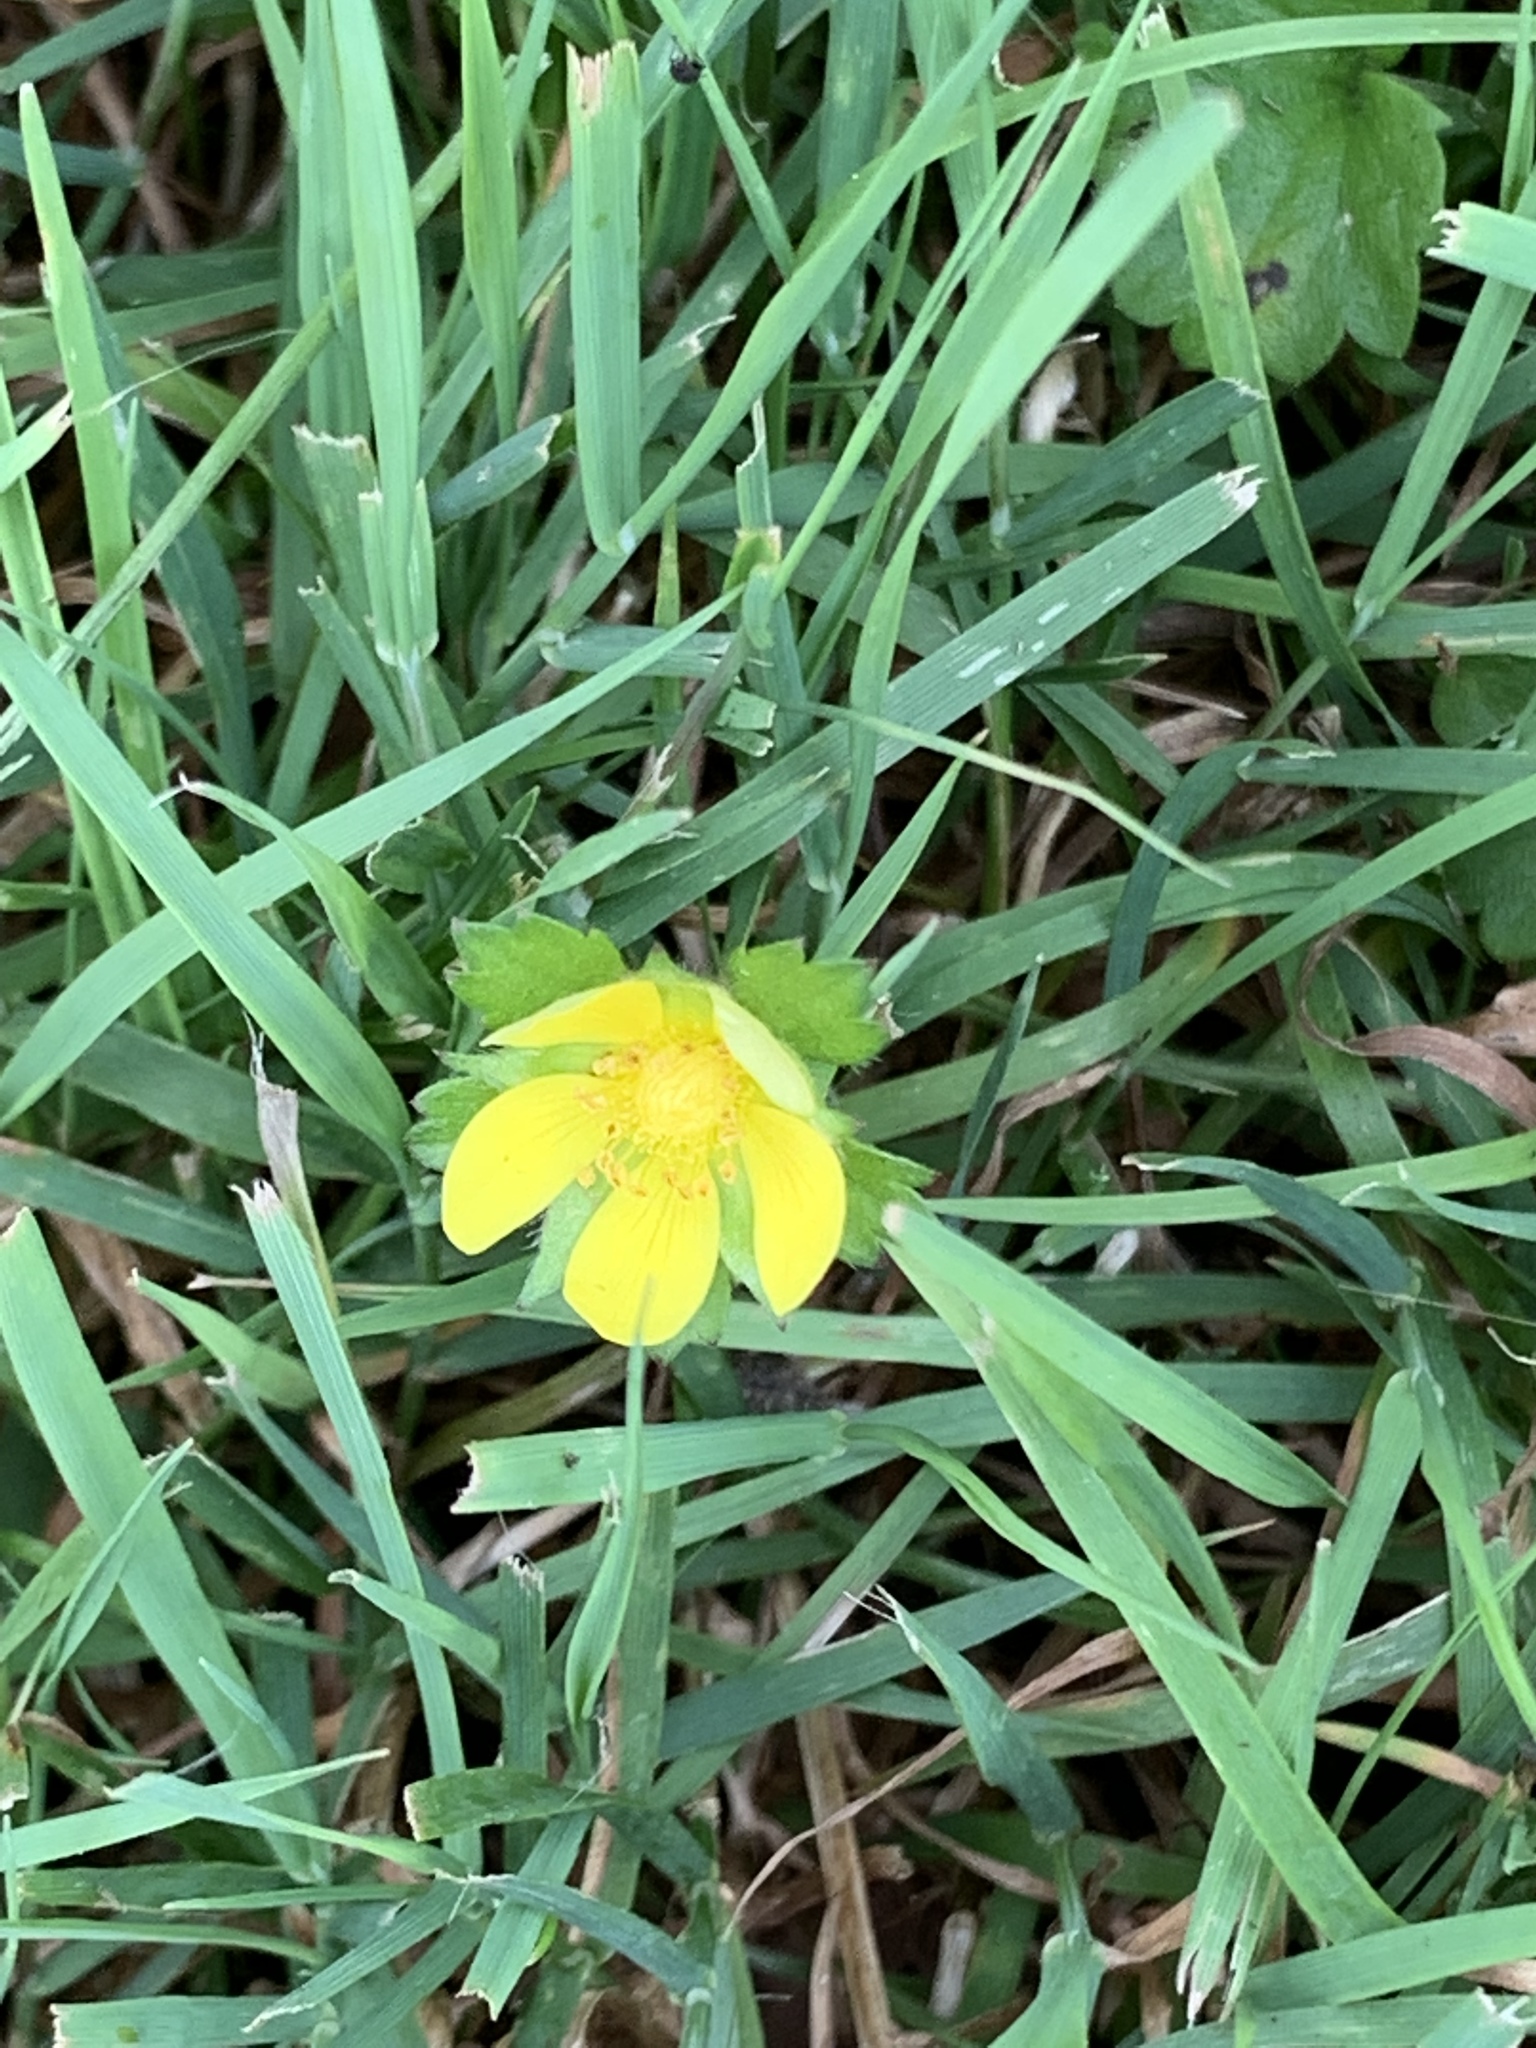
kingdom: Plantae
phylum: Tracheophyta
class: Magnoliopsida
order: Rosales
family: Rosaceae
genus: Potentilla
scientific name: Potentilla indica
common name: Yellow-flowered strawberry
